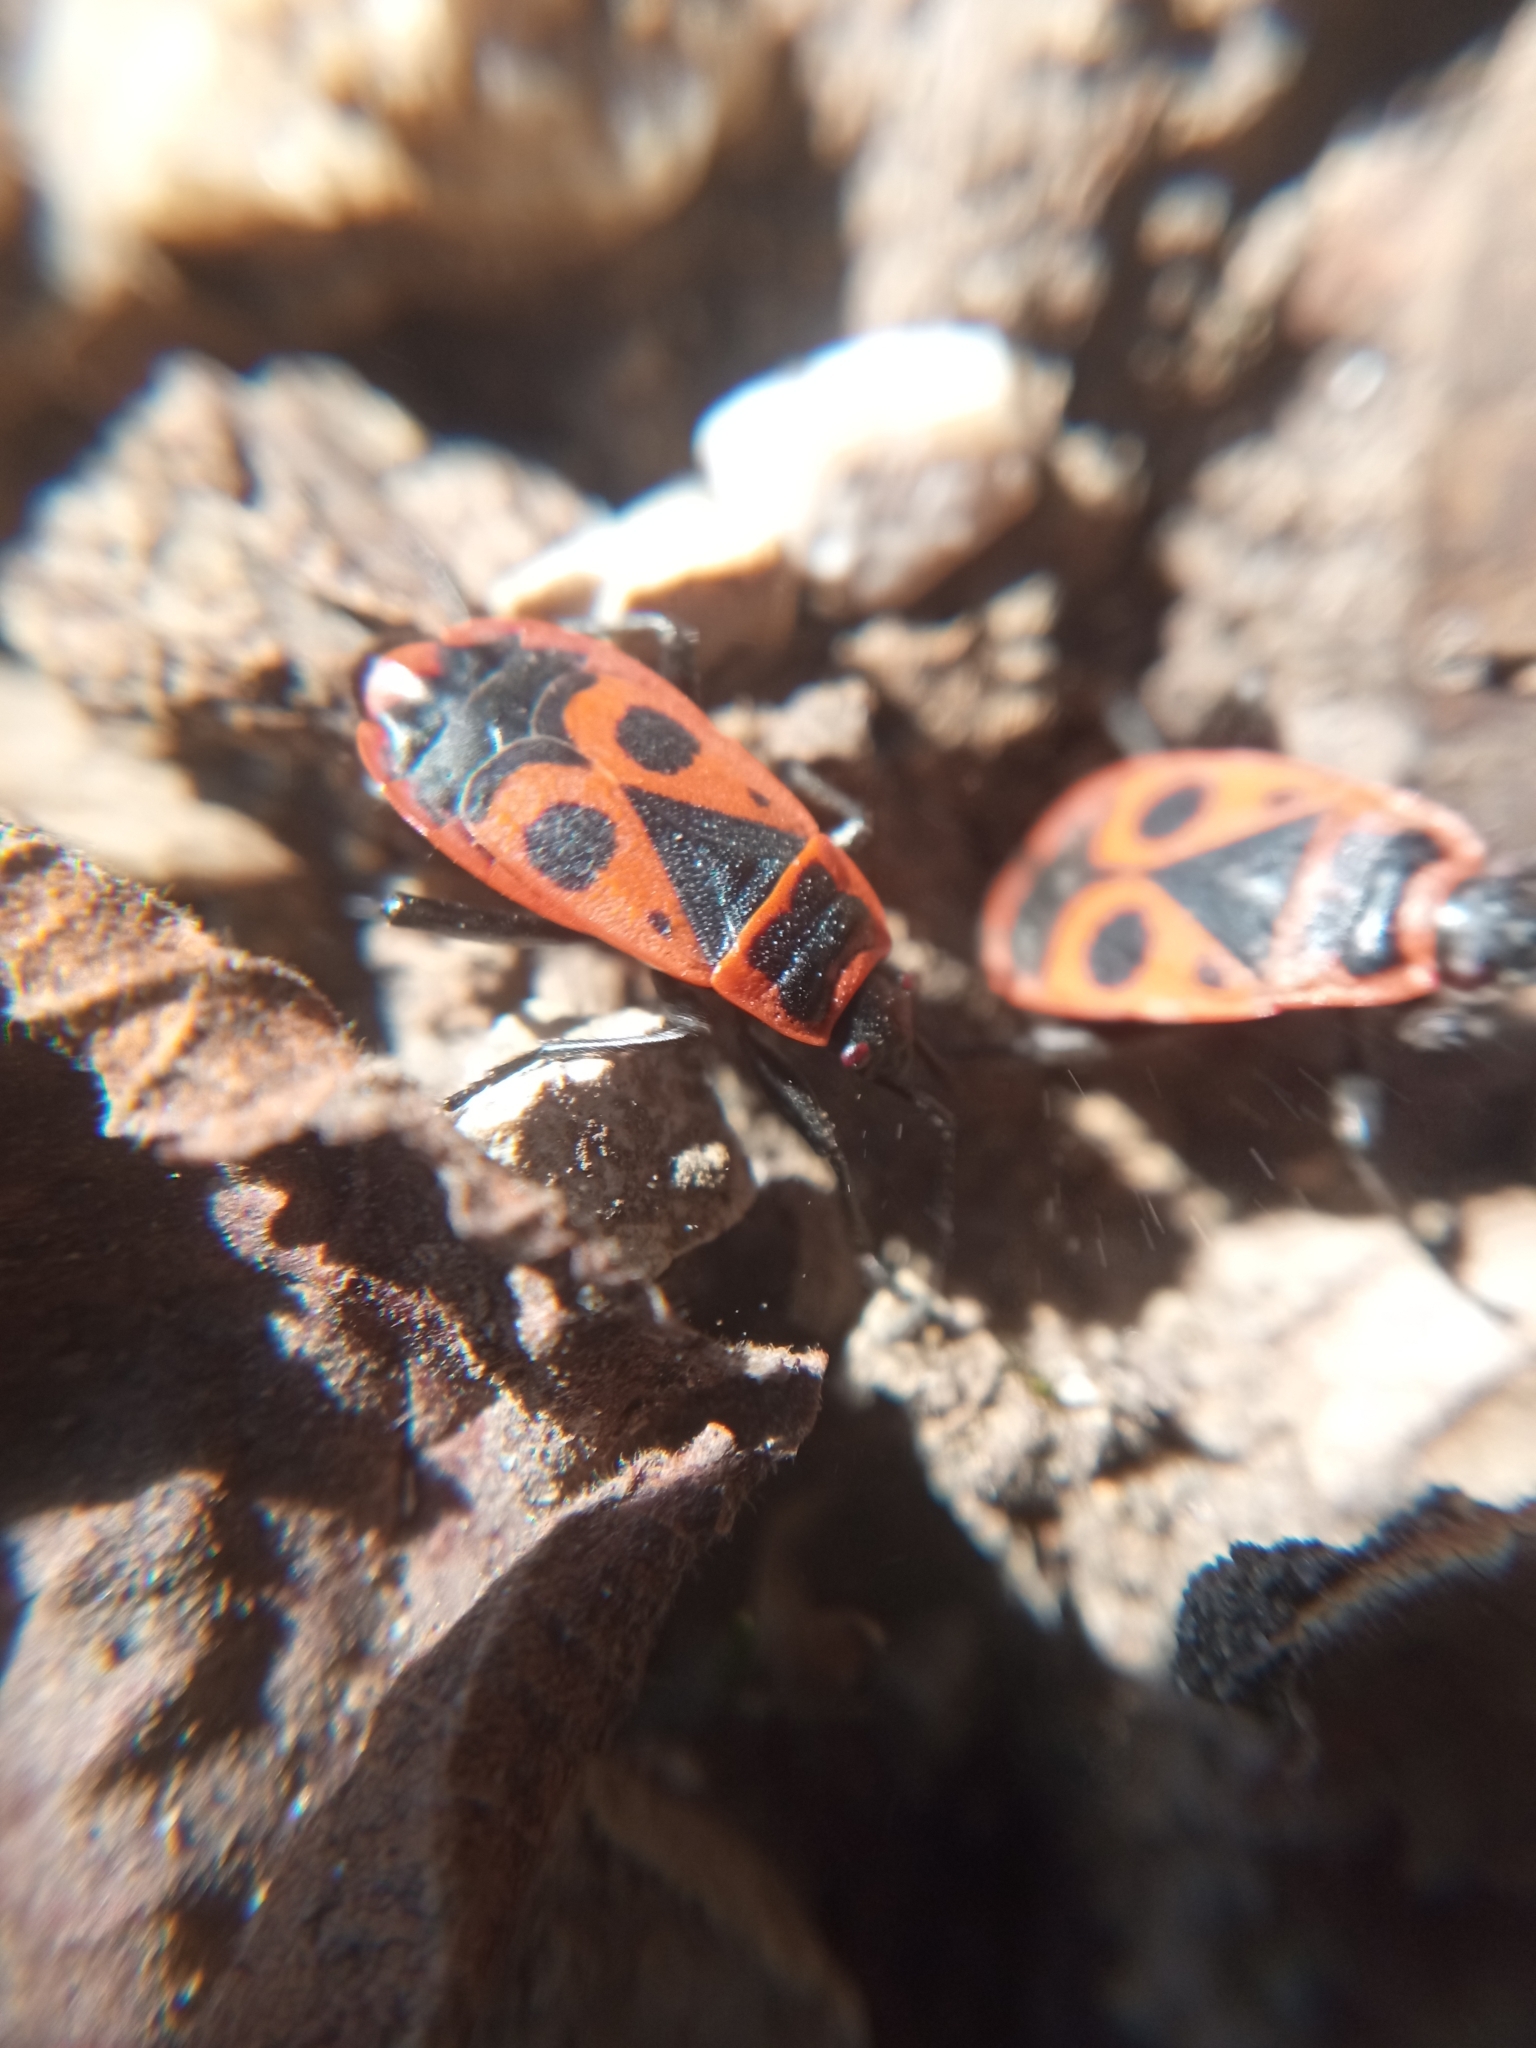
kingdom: Animalia
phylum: Arthropoda
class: Insecta
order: Hemiptera
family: Pyrrhocoridae
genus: Pyrrhocoris
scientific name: Pyrrhocoris apterus
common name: Firebug
